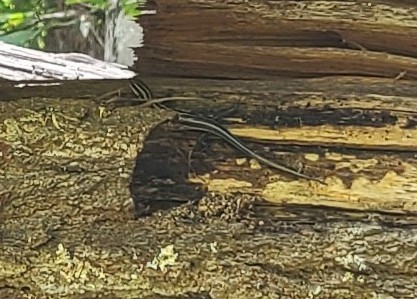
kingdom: Animalia
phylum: Chordata
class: Squamata
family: Scincidae
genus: Plestiodon
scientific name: Plestiodon fasciatus
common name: Five-lined skink
